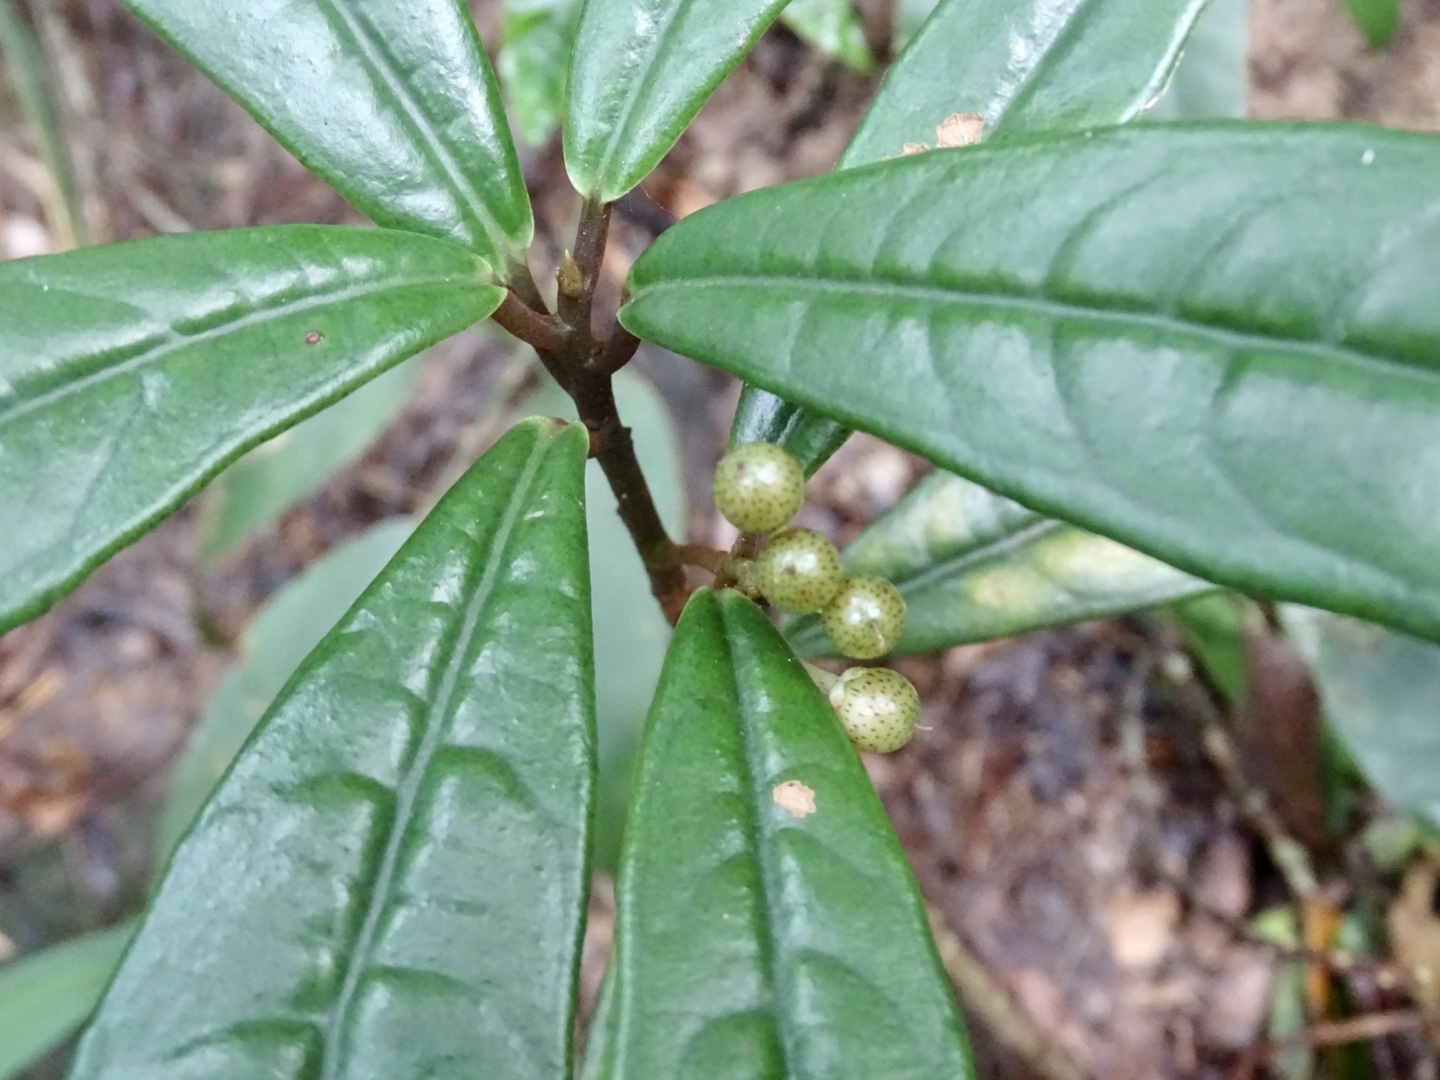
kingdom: Plantae
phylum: Tracheophyta
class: Magnoliopsida
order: Ericales
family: Primulaceae
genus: Ardisia
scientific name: Ardisia lindleyana
